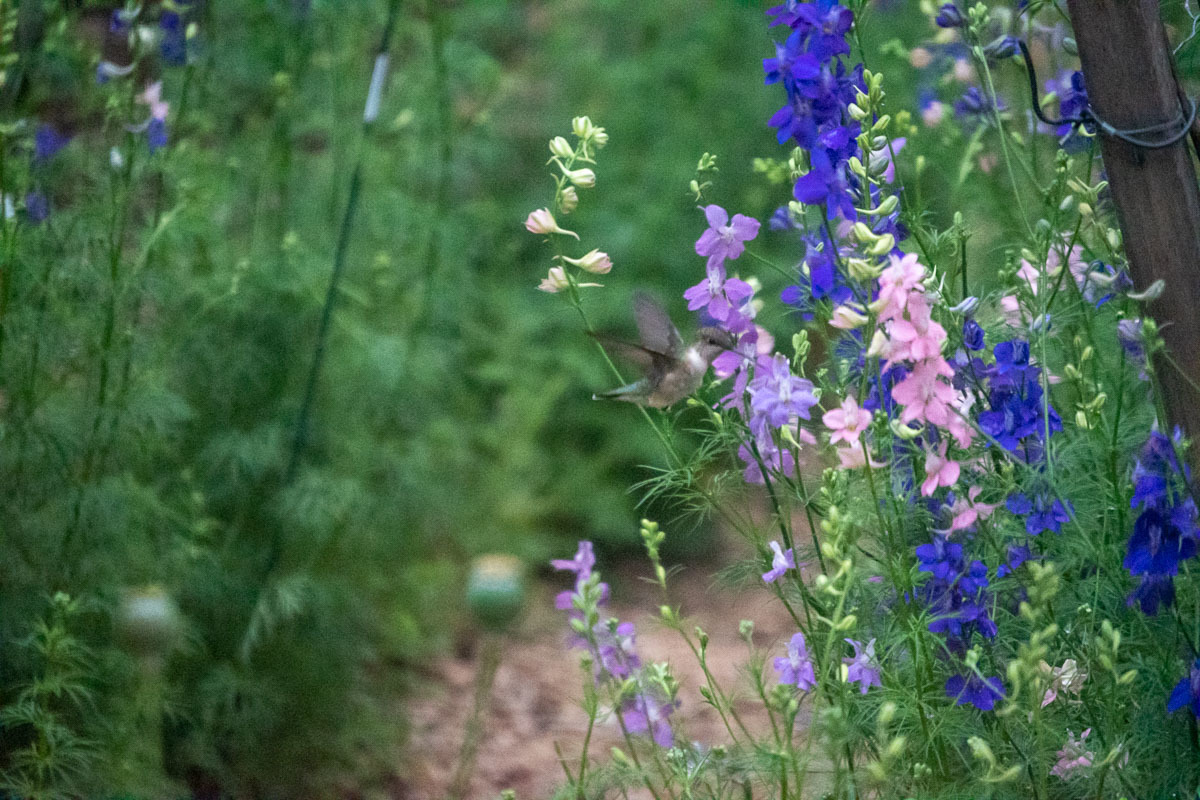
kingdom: Animalia
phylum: Chordata
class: Aves
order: Apodiformes
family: Trochilidae
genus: Archilochus
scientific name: Archilochus colubris
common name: Ruby-throated hummingbird
